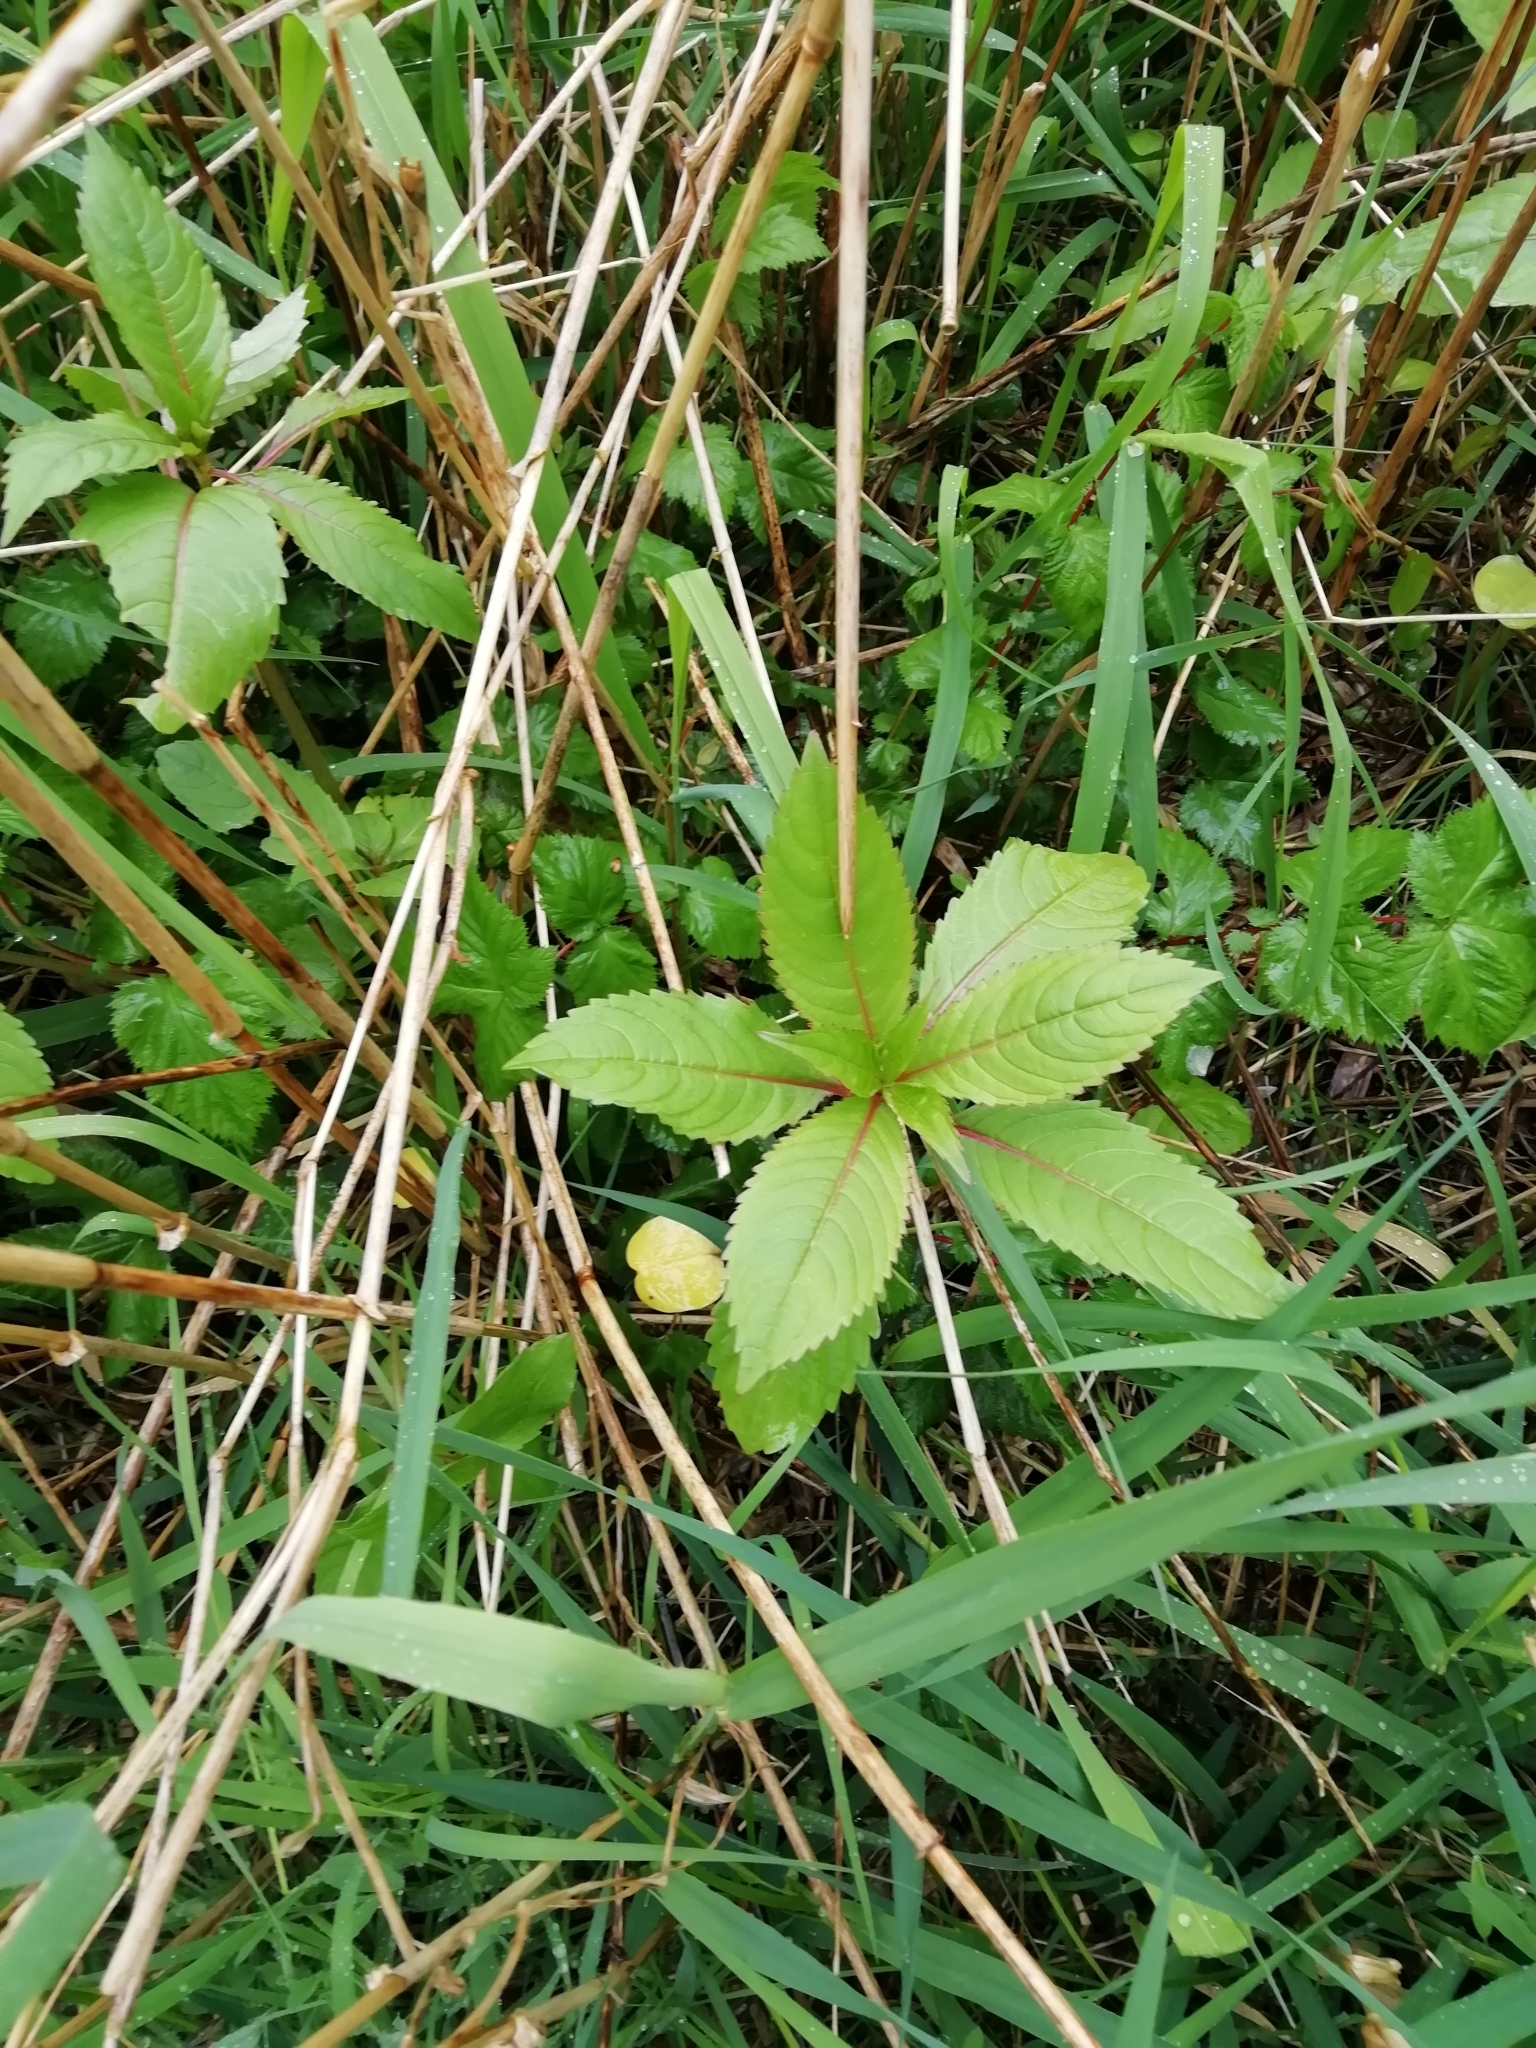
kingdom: Plantae
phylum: Tracheophyta
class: Magnoliopsida
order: Ericales
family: Balsaminaceae
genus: Impatiens
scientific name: Impatiens glandulifera
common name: Himalayan balsam
